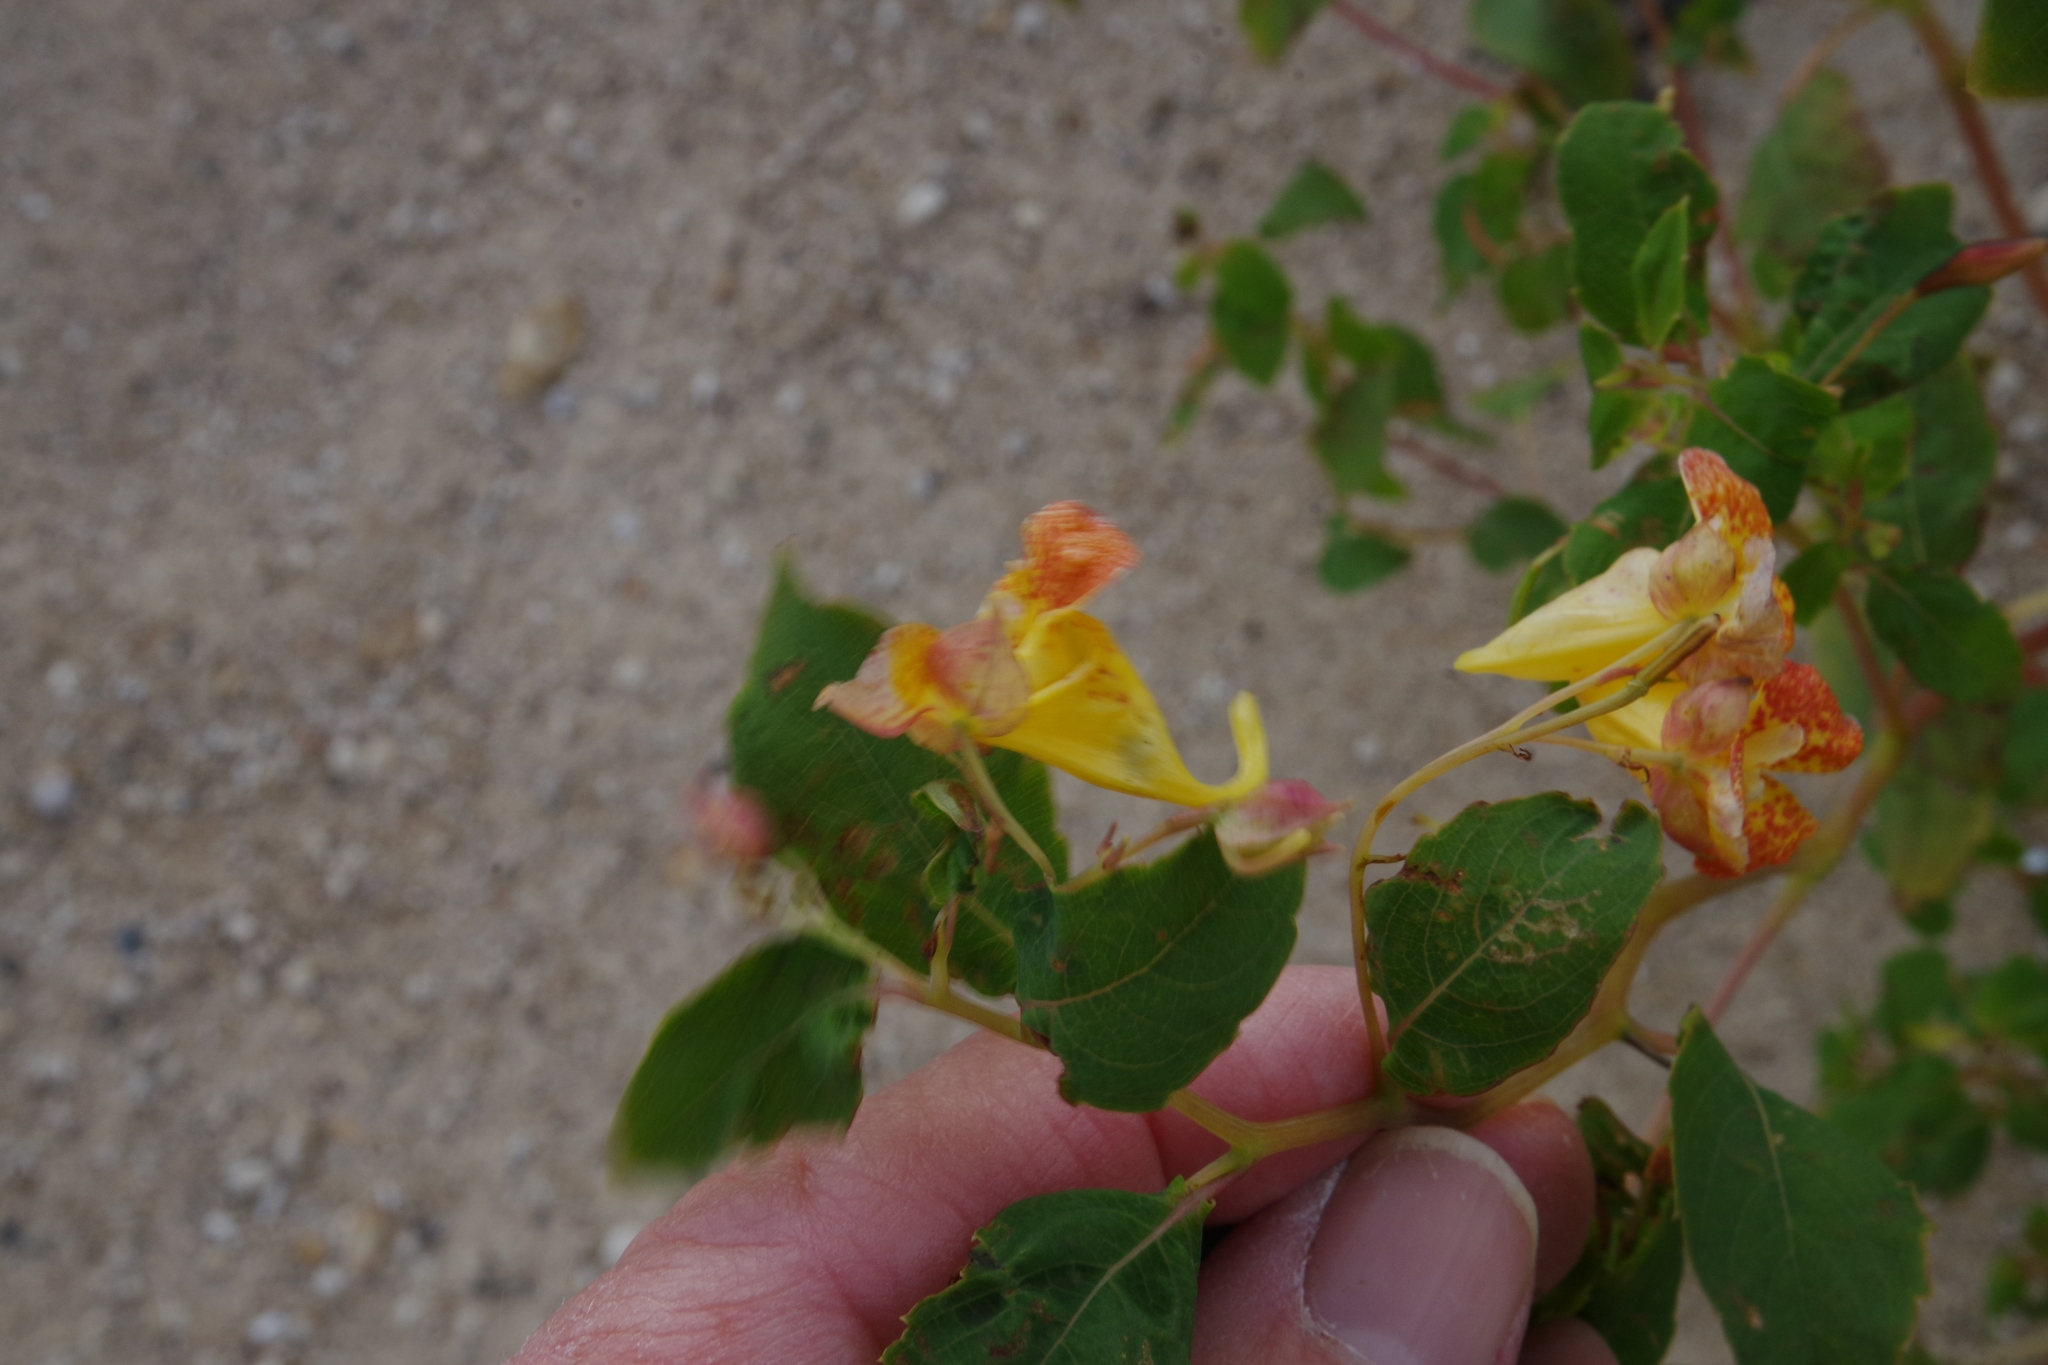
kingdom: Plantae
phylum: Tracheophyta
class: Magnoliopsida
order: Ericales
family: Balsaminaceae
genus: Impatiens
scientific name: Impatiens capensis
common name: Orange balsam
